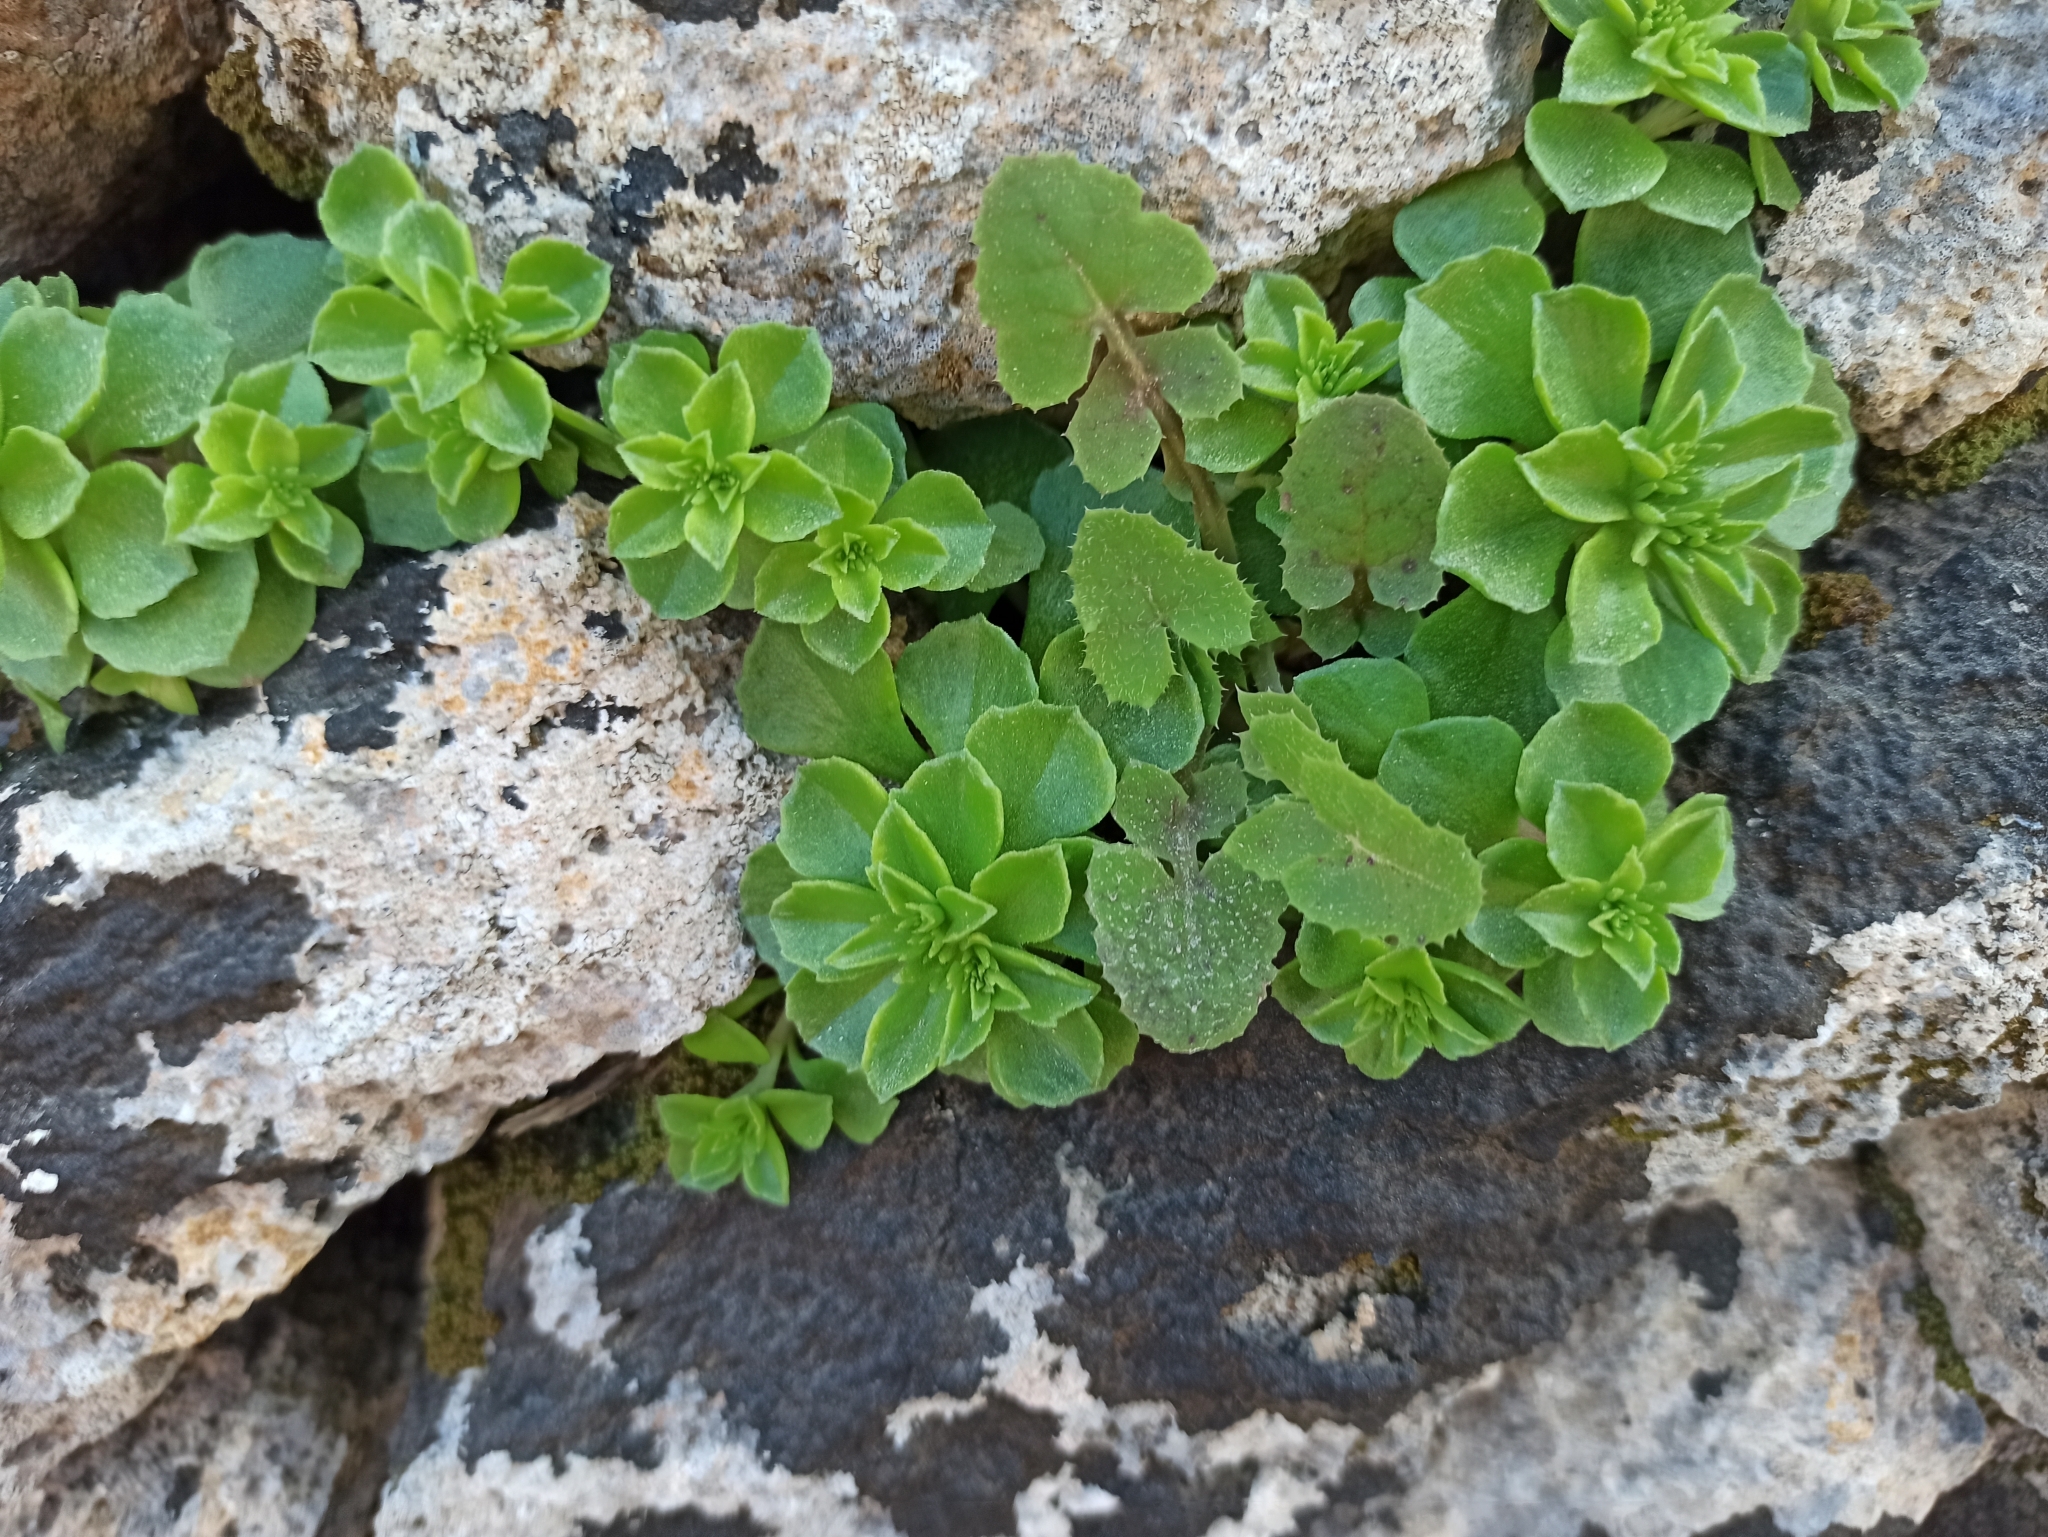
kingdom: Plantae
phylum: Tracheophyta
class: Magnoliopsida
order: Saxifragales
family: Crassulaceae
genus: Phedimus
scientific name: Phedimus stellatus
